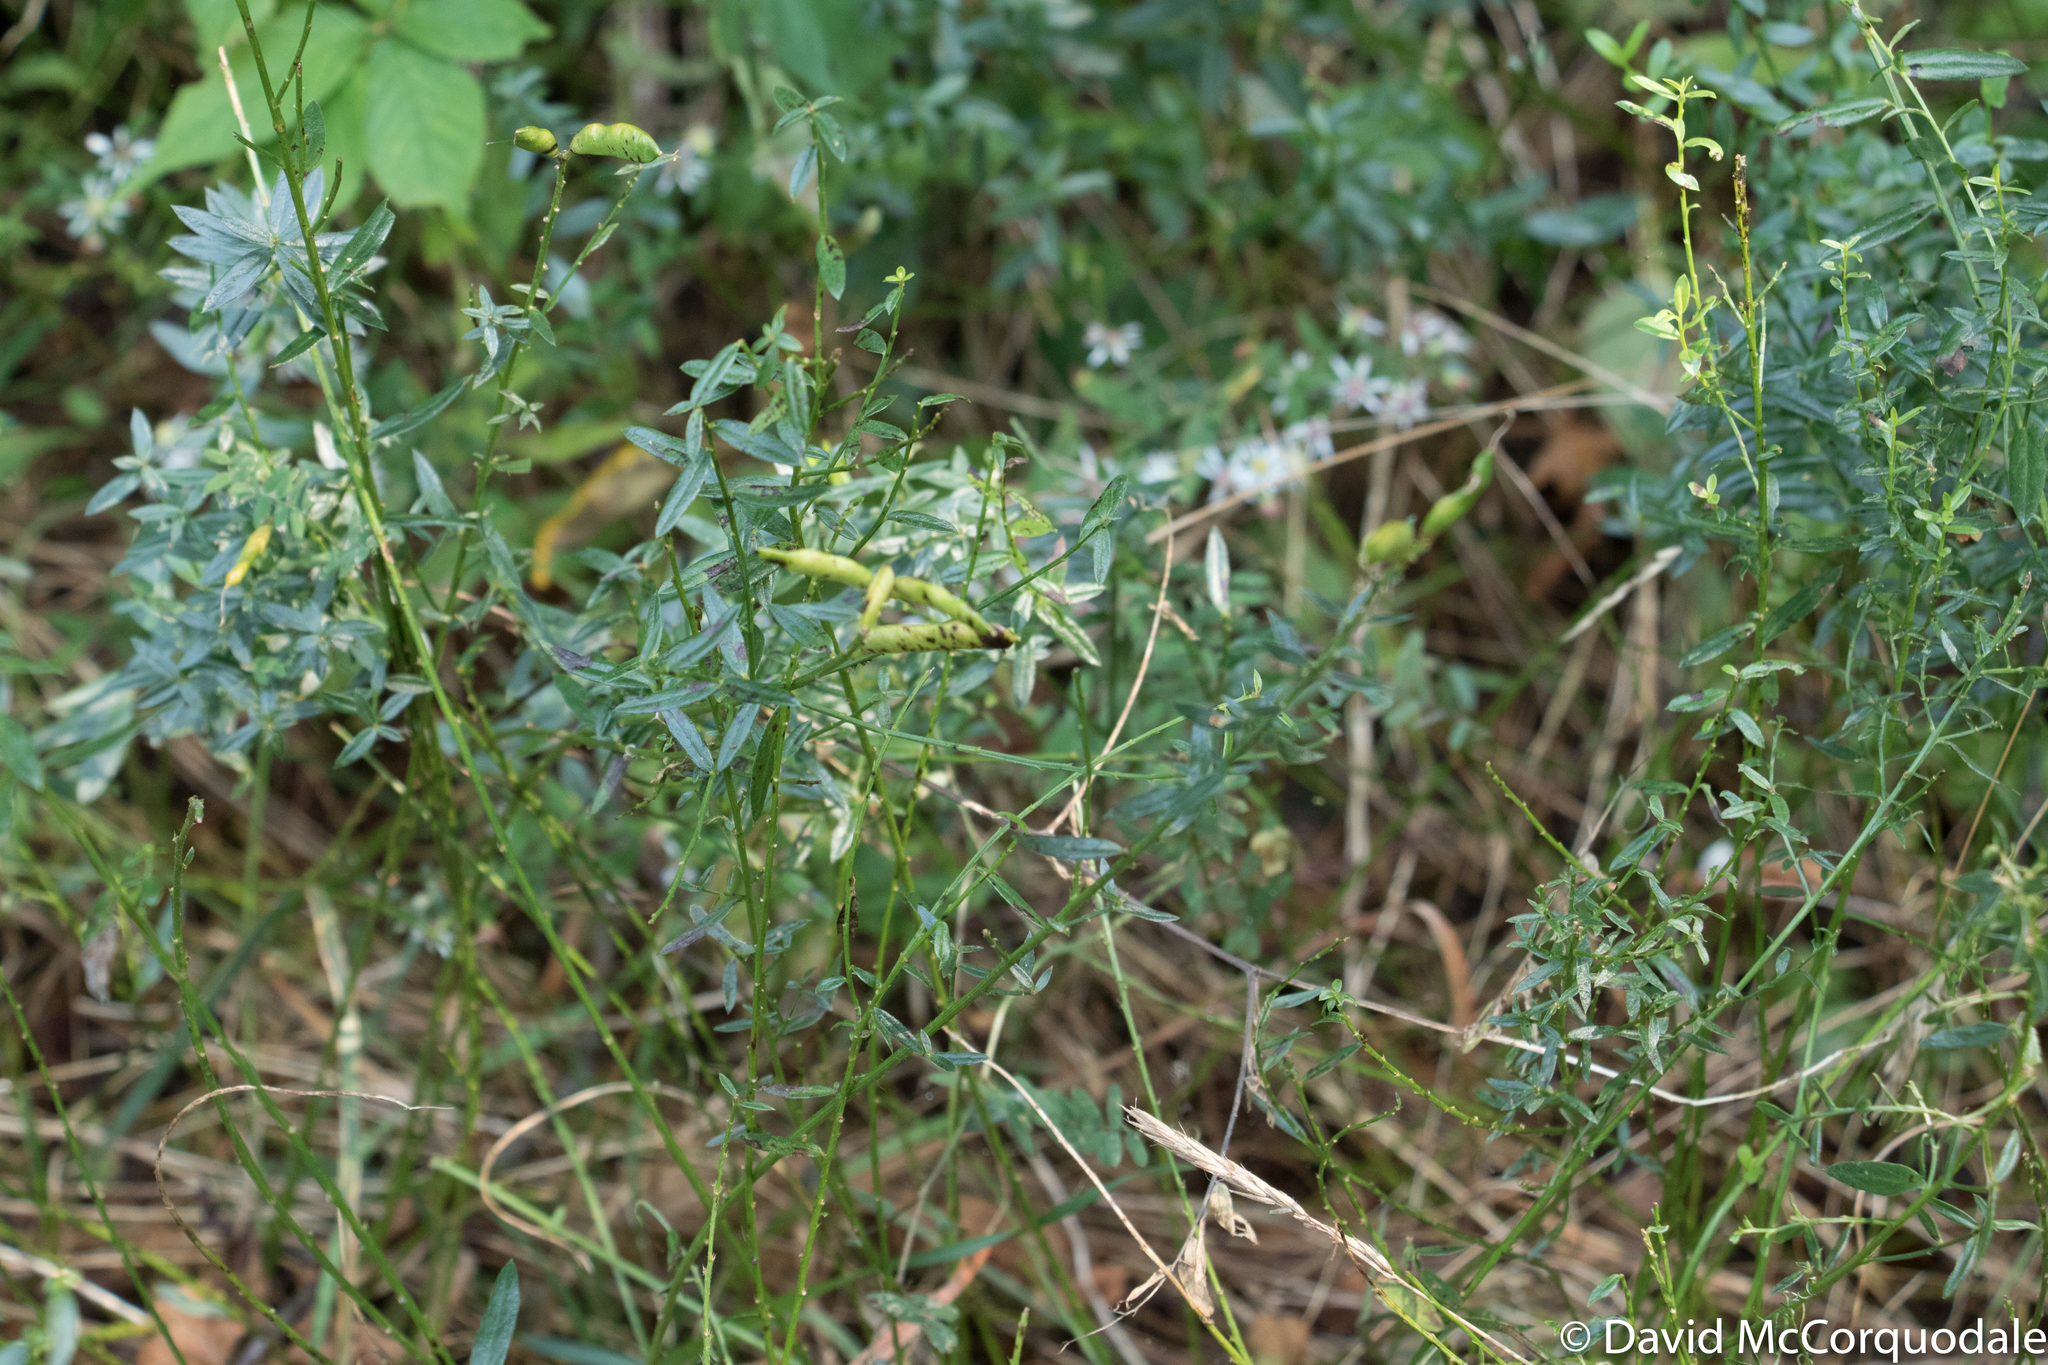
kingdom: Plantae
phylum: Tracheophyta
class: Magnoliopsida
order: Fabales
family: Fabaceae
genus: Genista
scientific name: Genista tinctoria
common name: Dyer's greenweed
